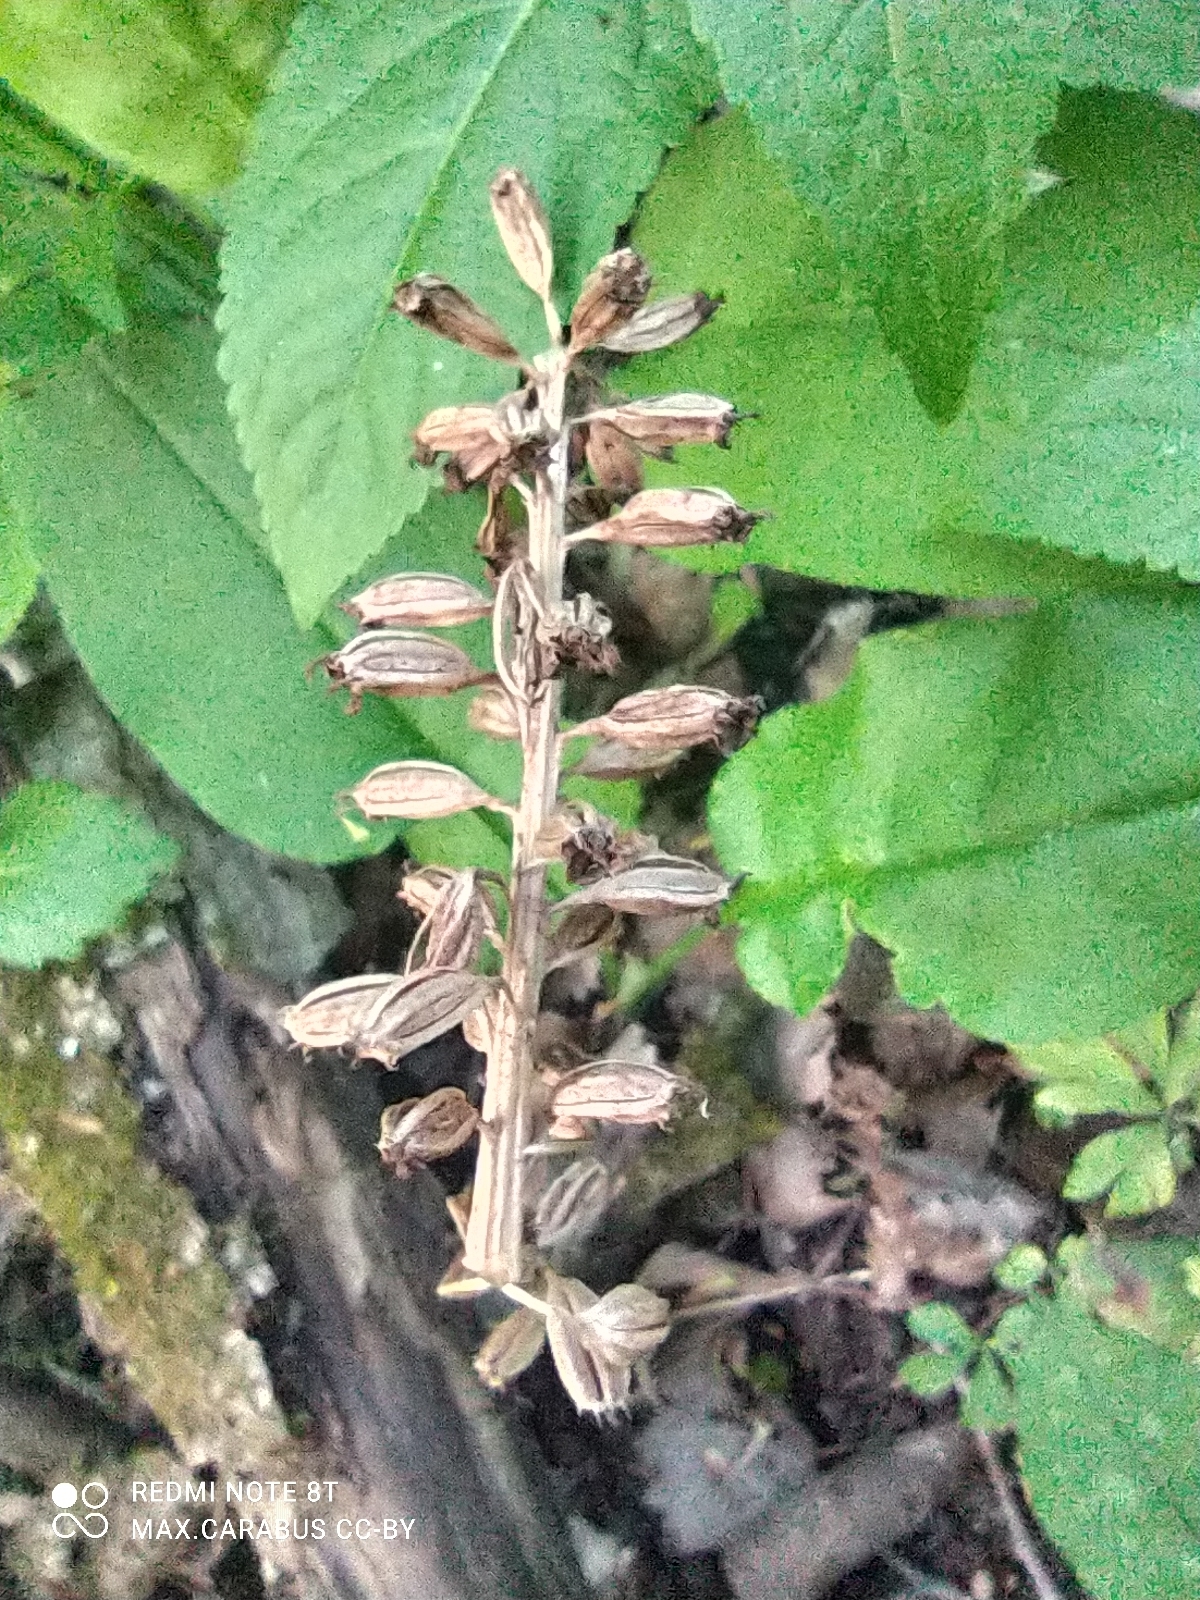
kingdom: Plantae
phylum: Tracheophyta
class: Liliopsida
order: Asparagales
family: Orchidaceae
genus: Neottia
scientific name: Neottia nidus-avis
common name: Bird's-nest orchid
